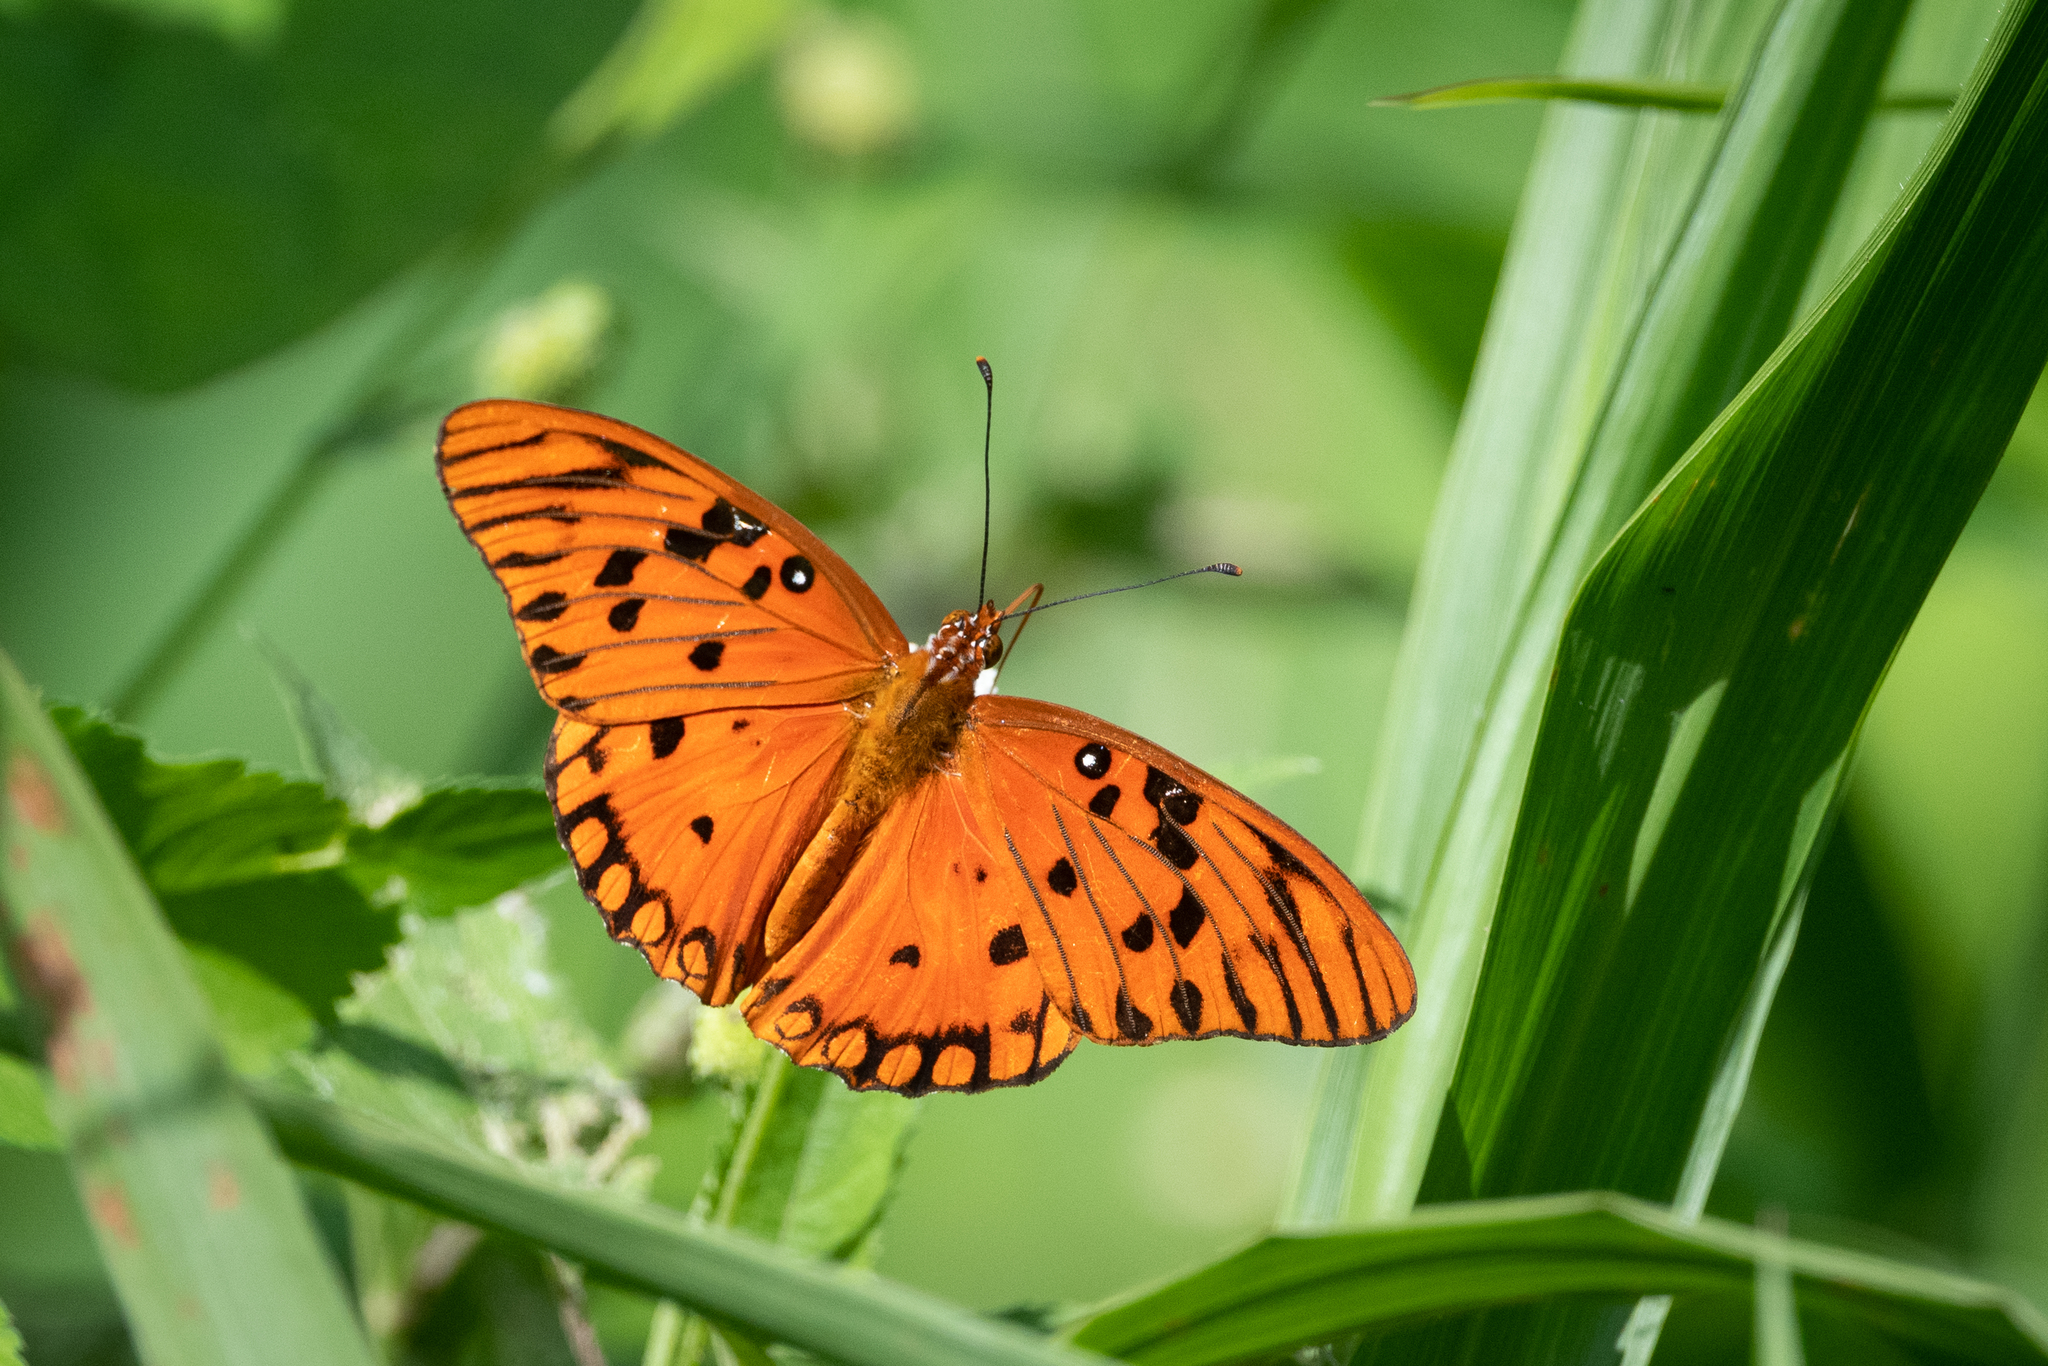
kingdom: Animalia
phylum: Arthropoda
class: Insecta
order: Lepidoptera
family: Nymphalidae
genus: Dione
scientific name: Dione vanillae
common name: Gulf fritillary
